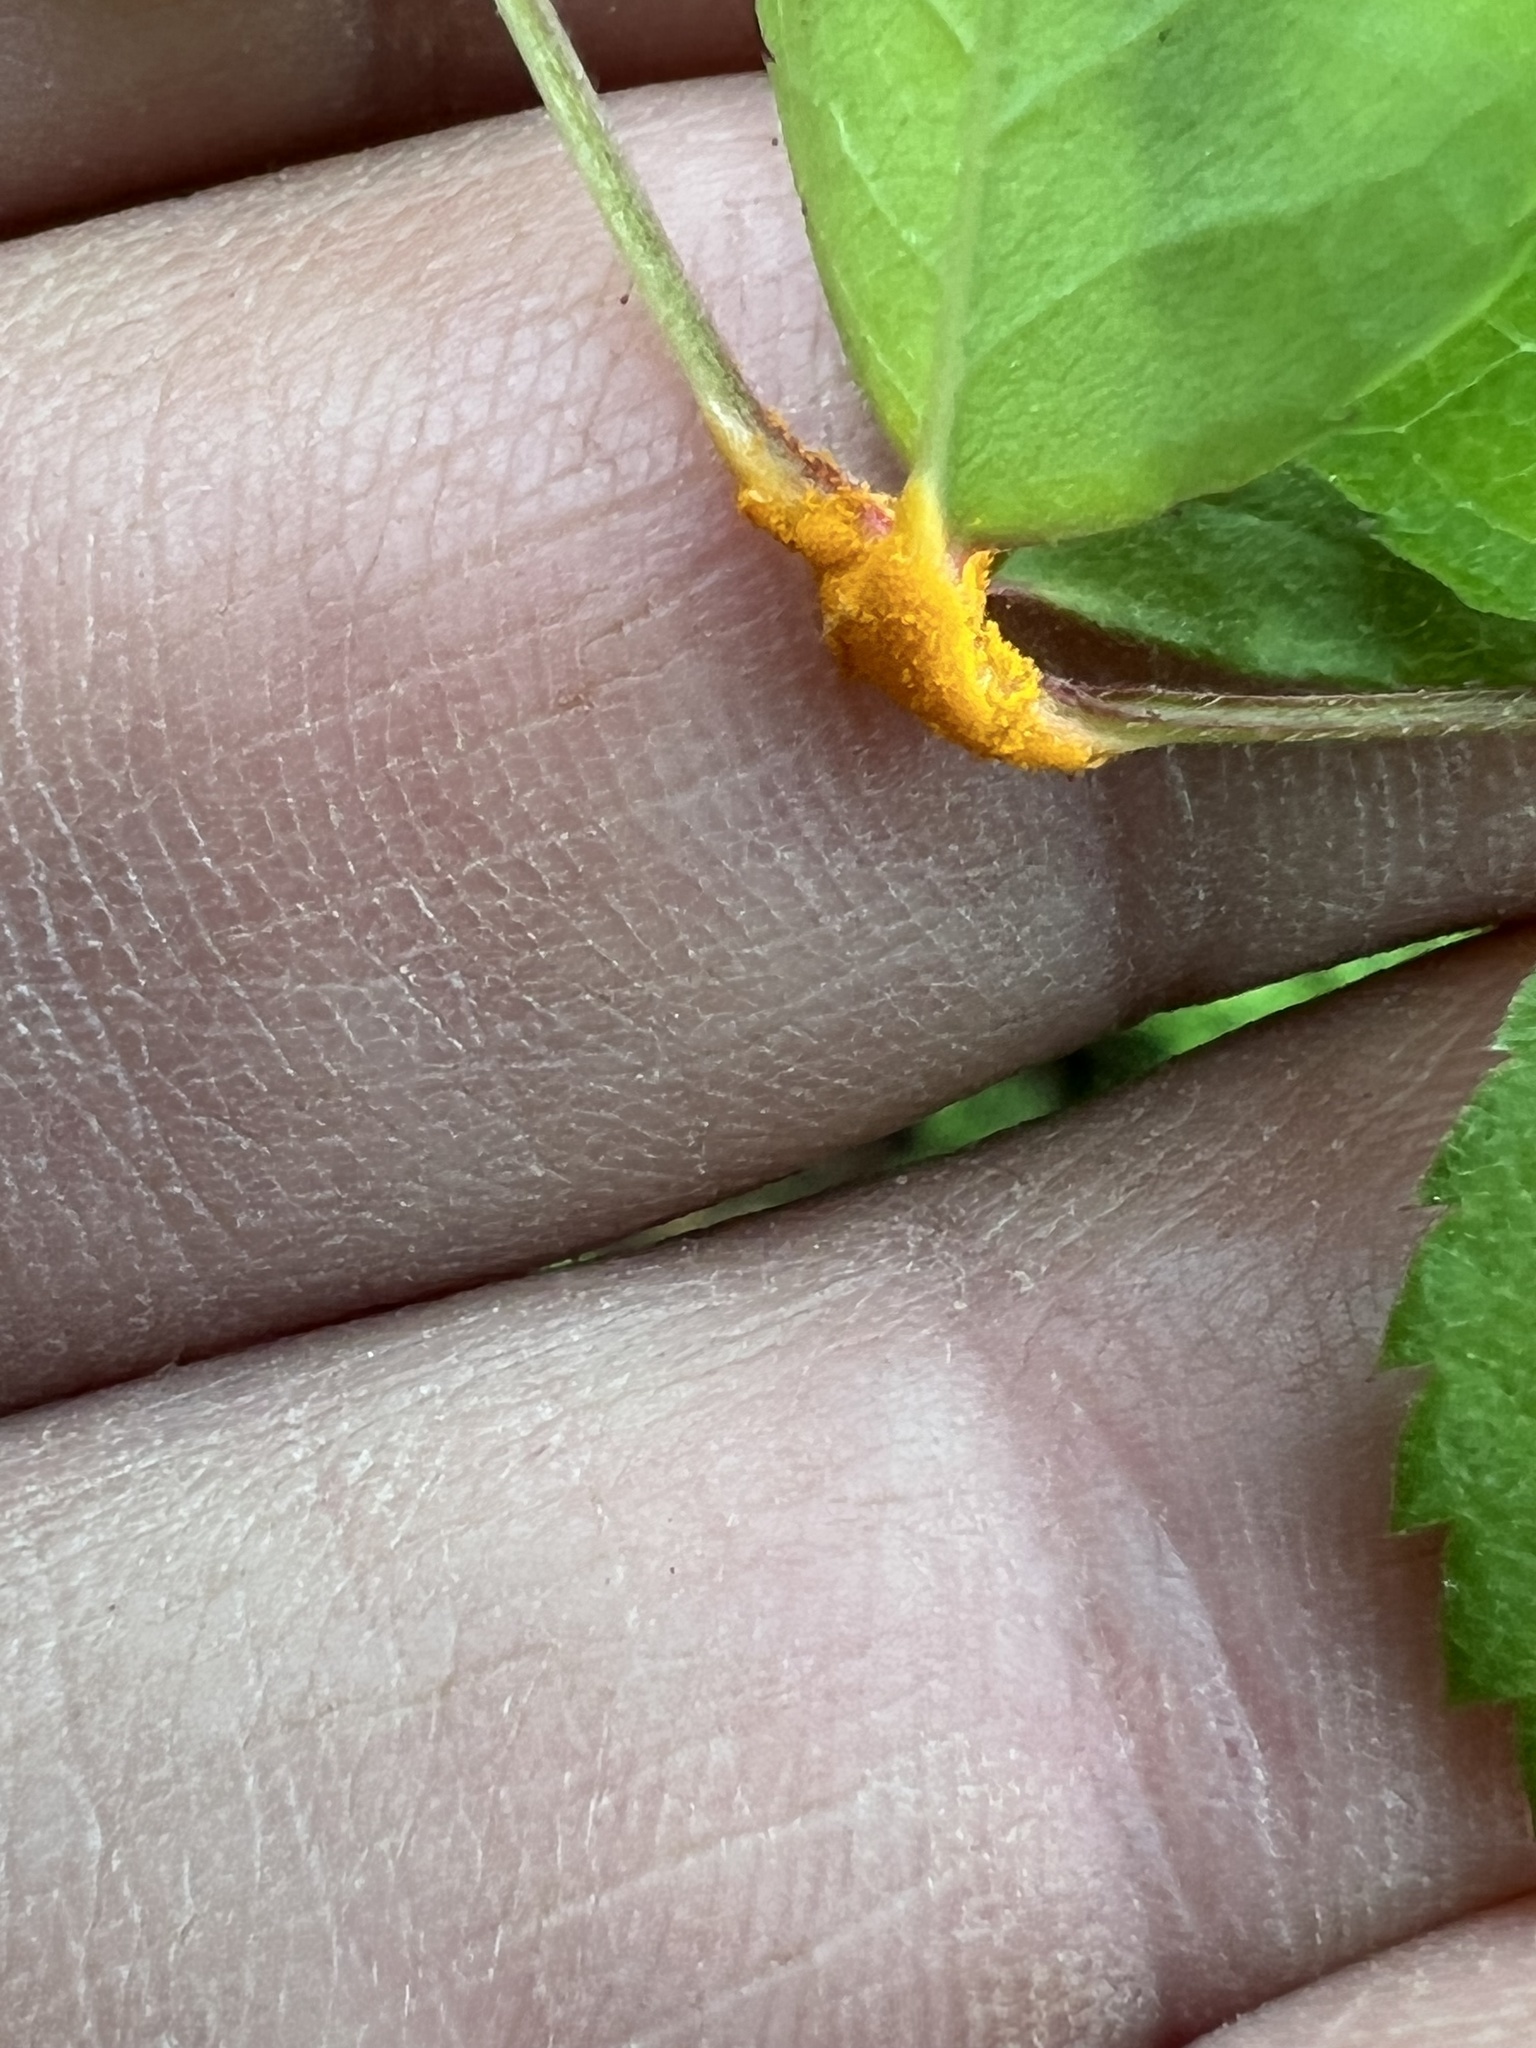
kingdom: Fungi
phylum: Basidiomycota
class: Pucciniomycetes
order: Pucciniales
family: Phragmidiaceae
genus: Phragmidium
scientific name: Phragmidium rosae-multiflorae
